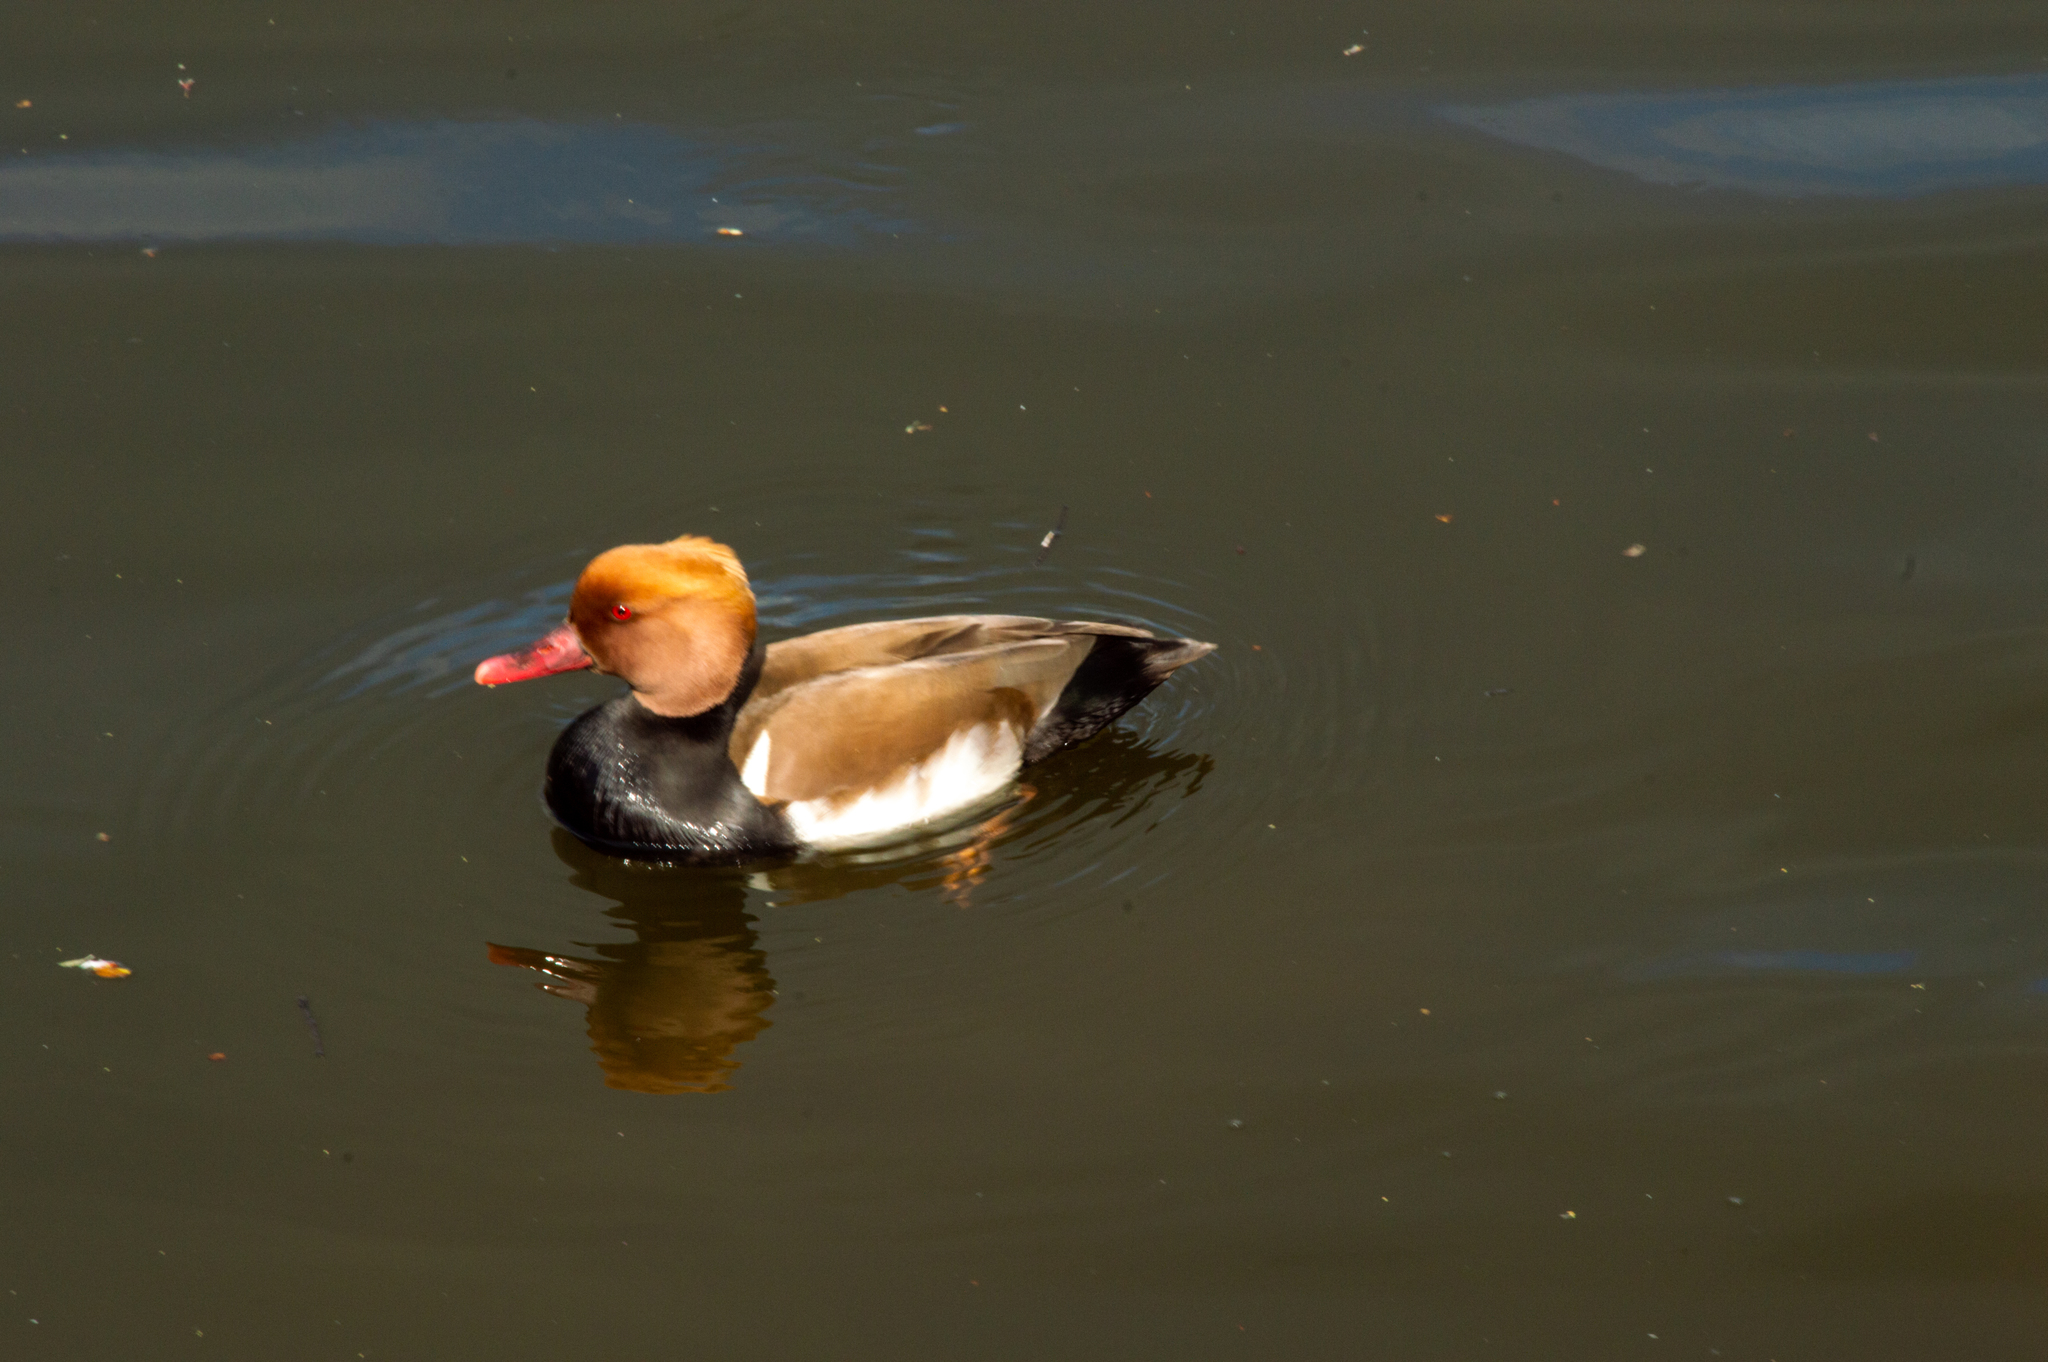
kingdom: Animalia
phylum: Chordata
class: Aves
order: Anseriformes
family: Anatidae
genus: Netta
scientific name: Netta rufina
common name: Red-crested pochard
